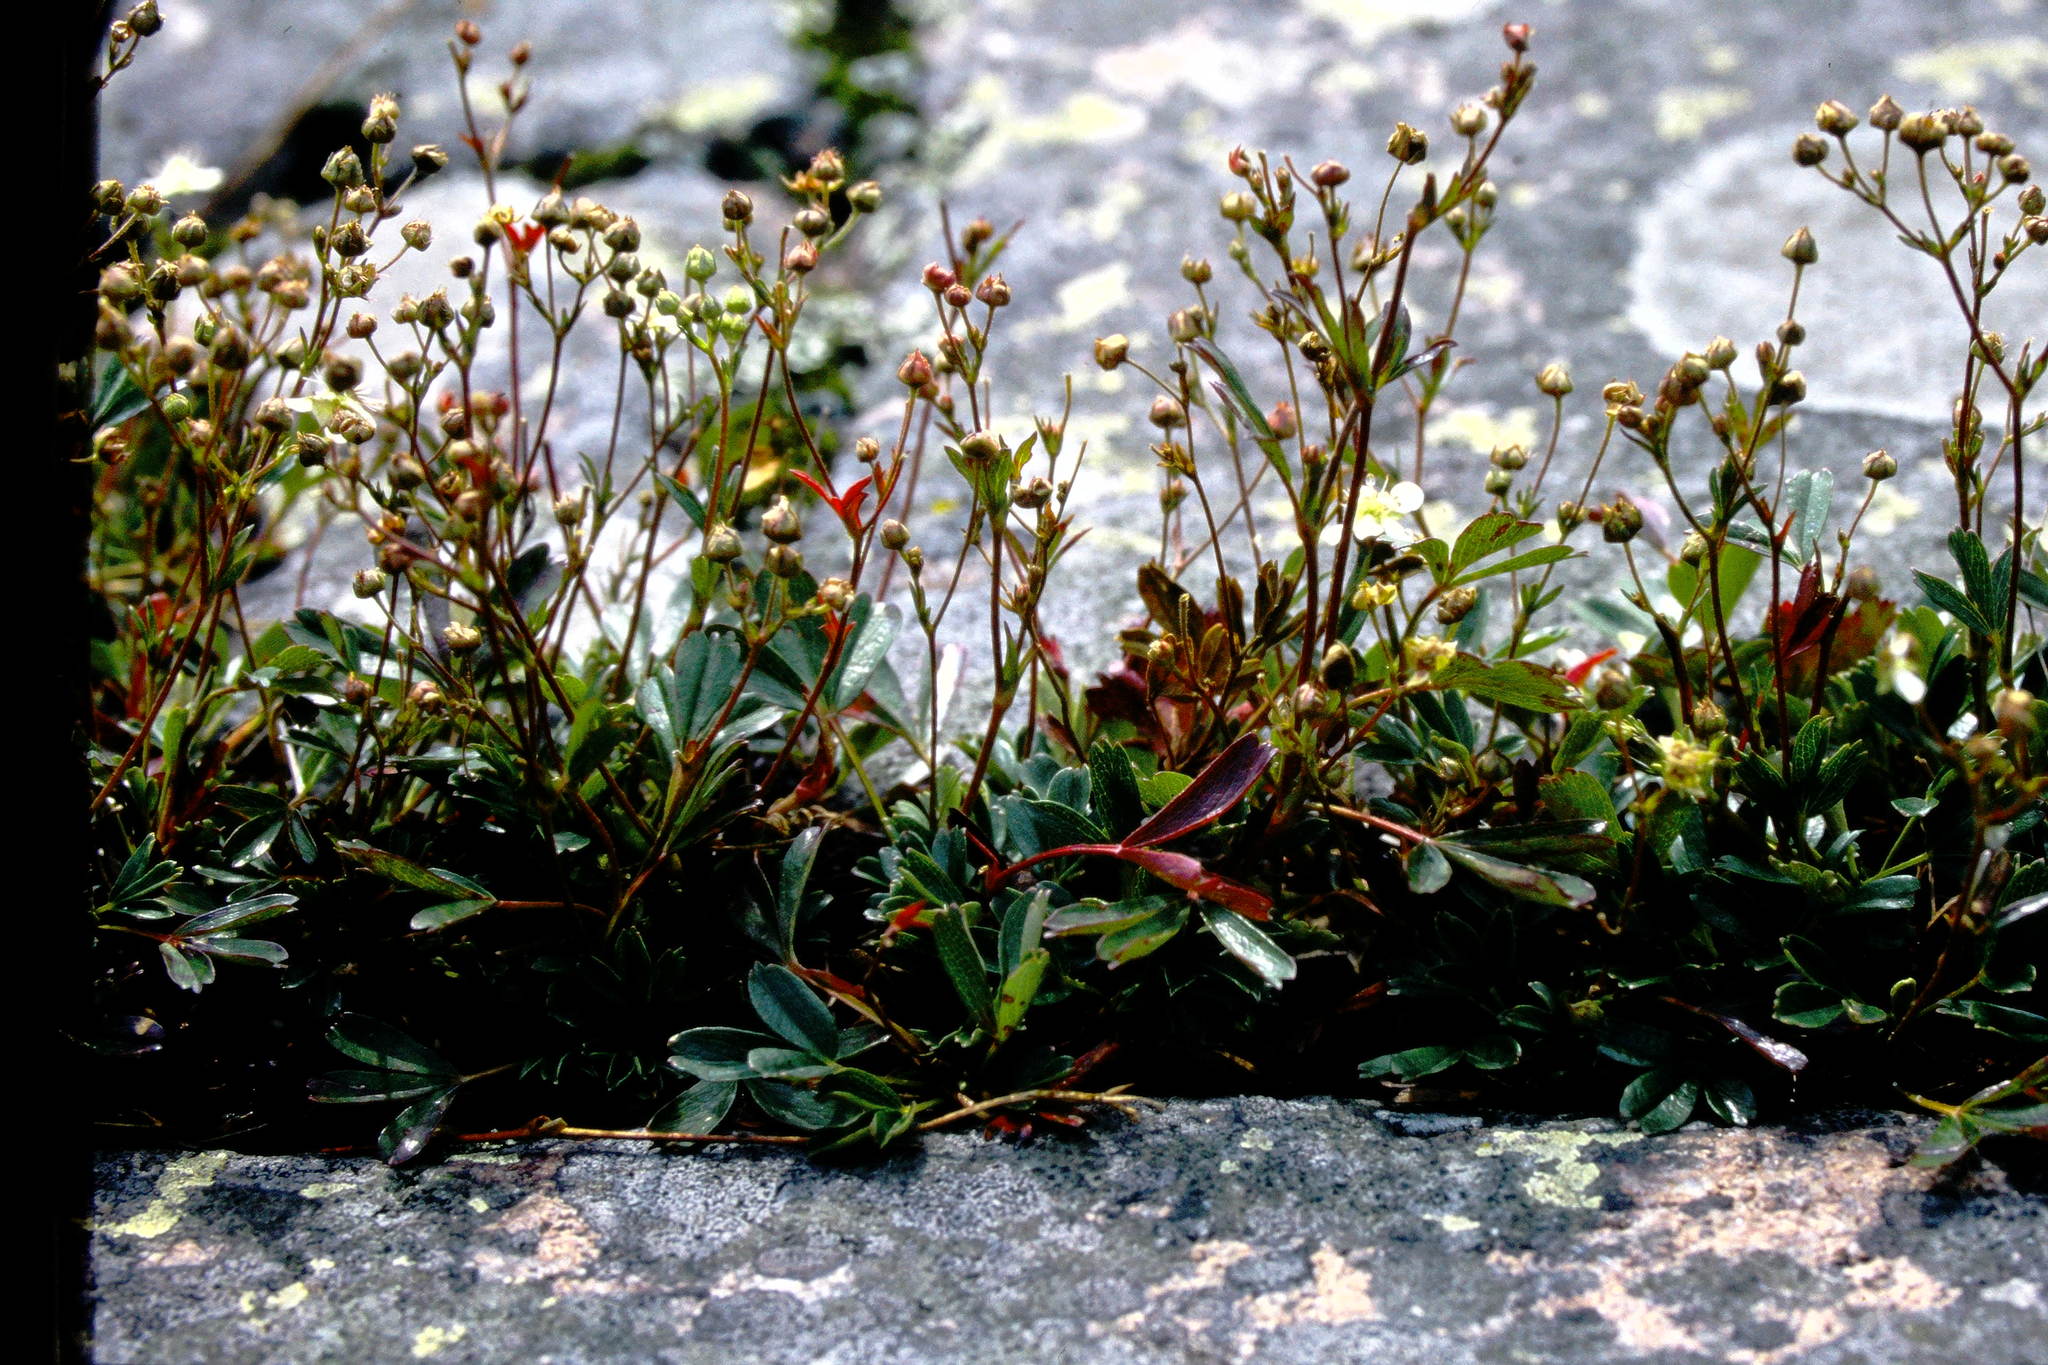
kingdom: Plantae
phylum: Tracheophyta
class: Magnoliopsida
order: Rosales
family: Rosaceae
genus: Sibbaldia
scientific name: Sibbaldia tridentata
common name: Three-toothed cinquefoil
